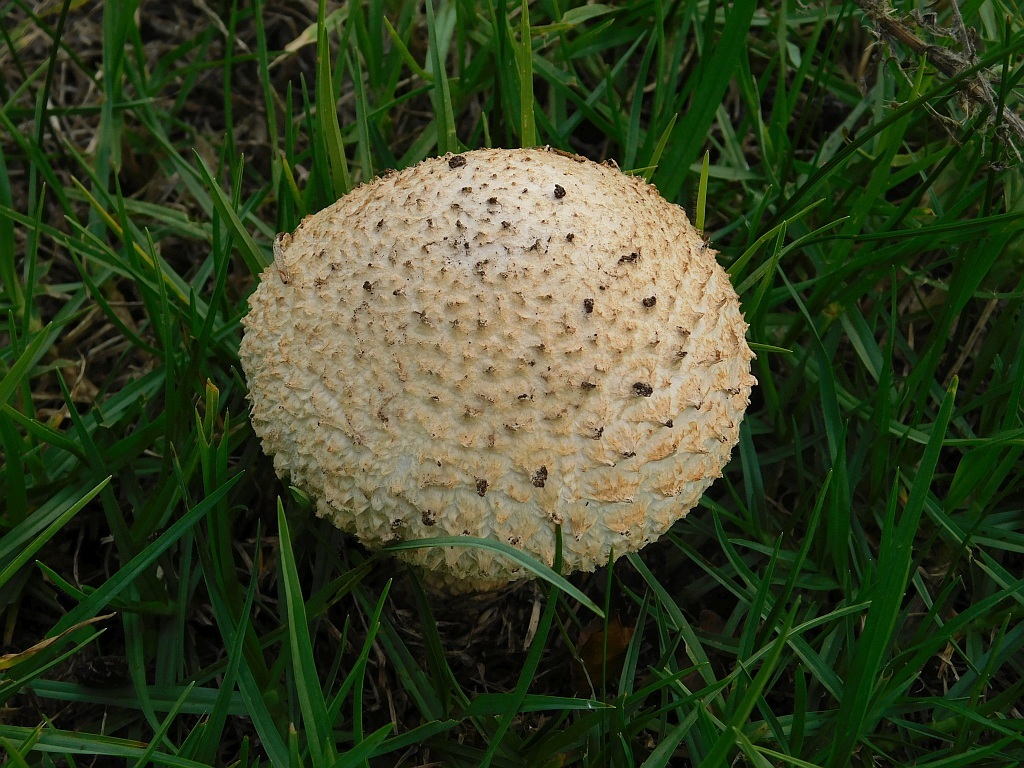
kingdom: Fungi
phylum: Basidiomycota
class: Agaricomycetes
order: Agaricales
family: Amanitaceae
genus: Amanita
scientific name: Amanita foetidissima
